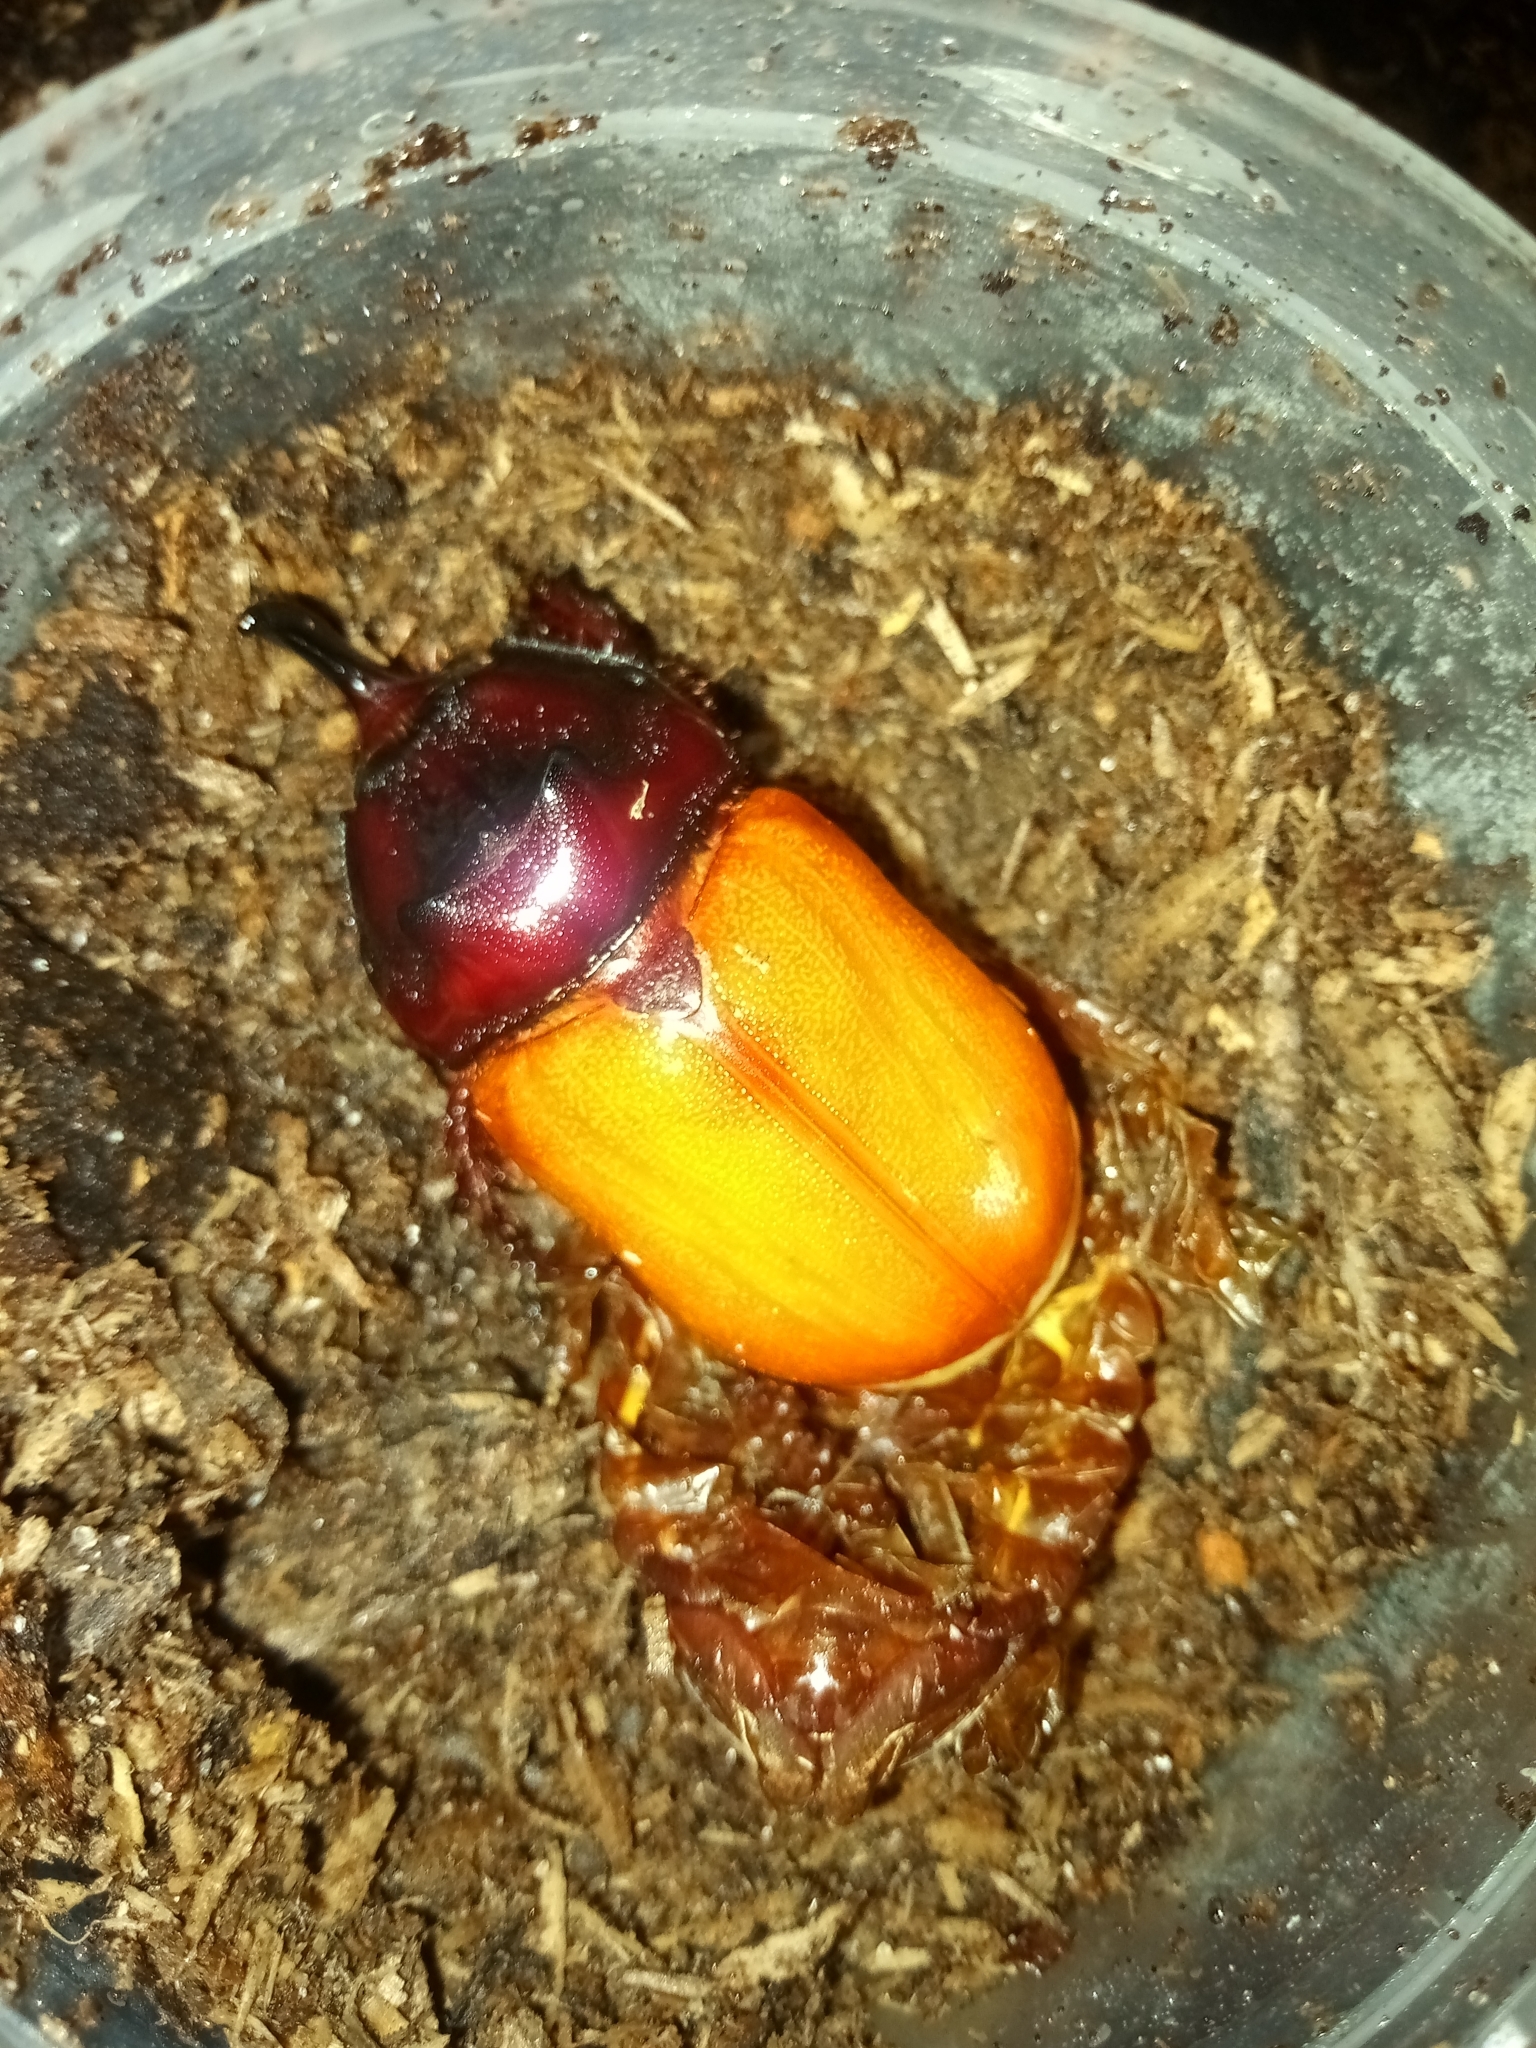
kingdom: Animalia
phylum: Arthropoda
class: Insecta
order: Coleoptera
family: Scarabaeidae
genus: Oryctes
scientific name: Oryctes nasicornis
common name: European rhinoceros beetle
